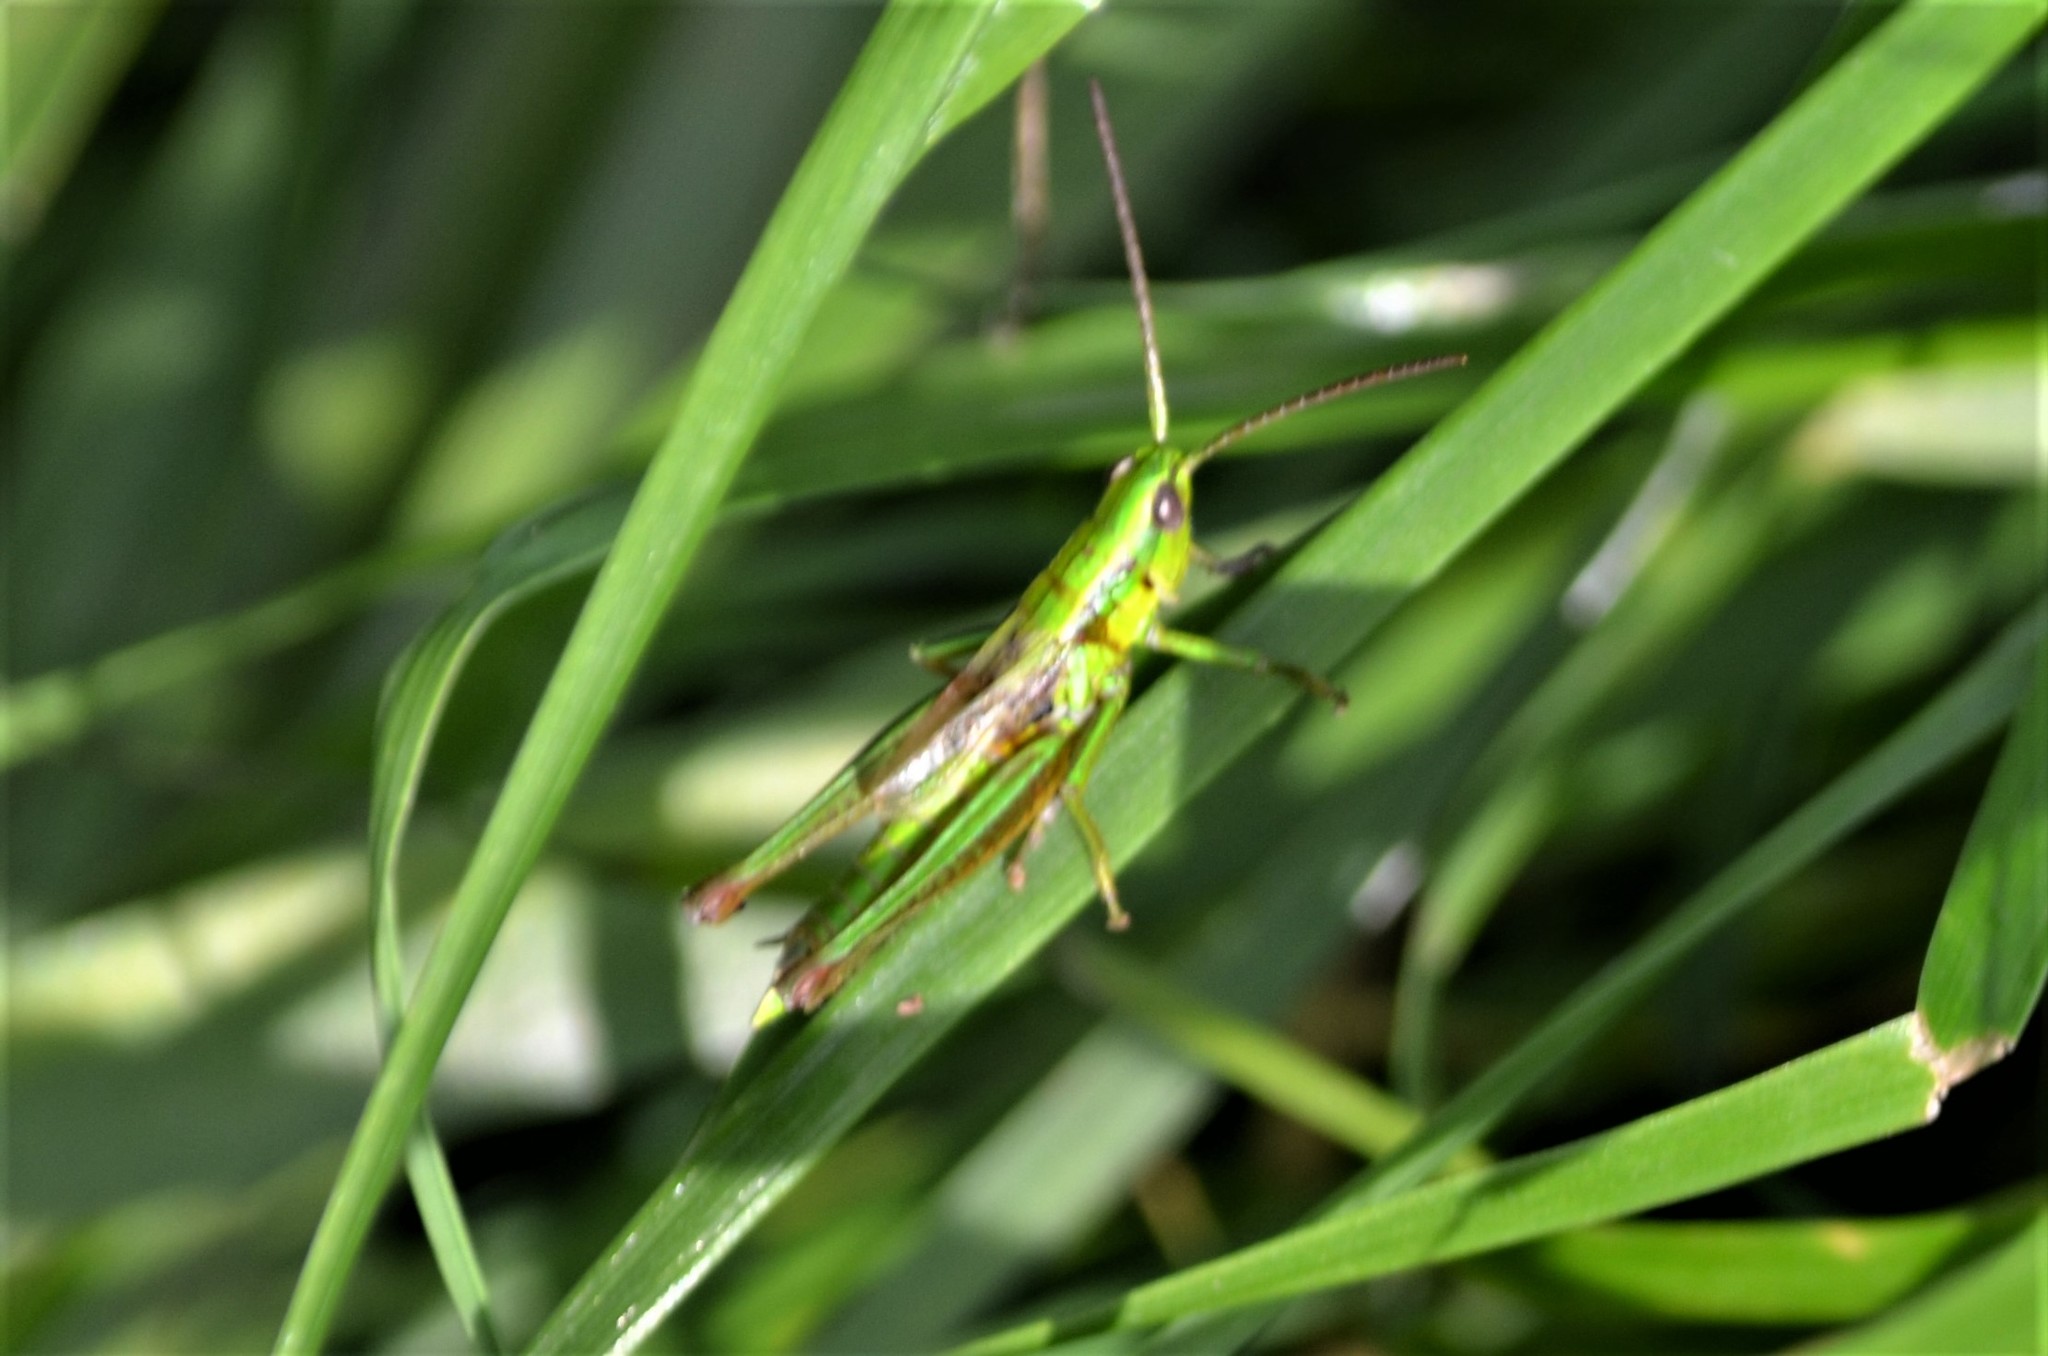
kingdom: Animalia
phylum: Arthropoda
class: Insecta
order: Orthoptera
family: Acrididae
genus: Euthystira
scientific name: Euthystira brachyptera
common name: Small gold grasshopper
